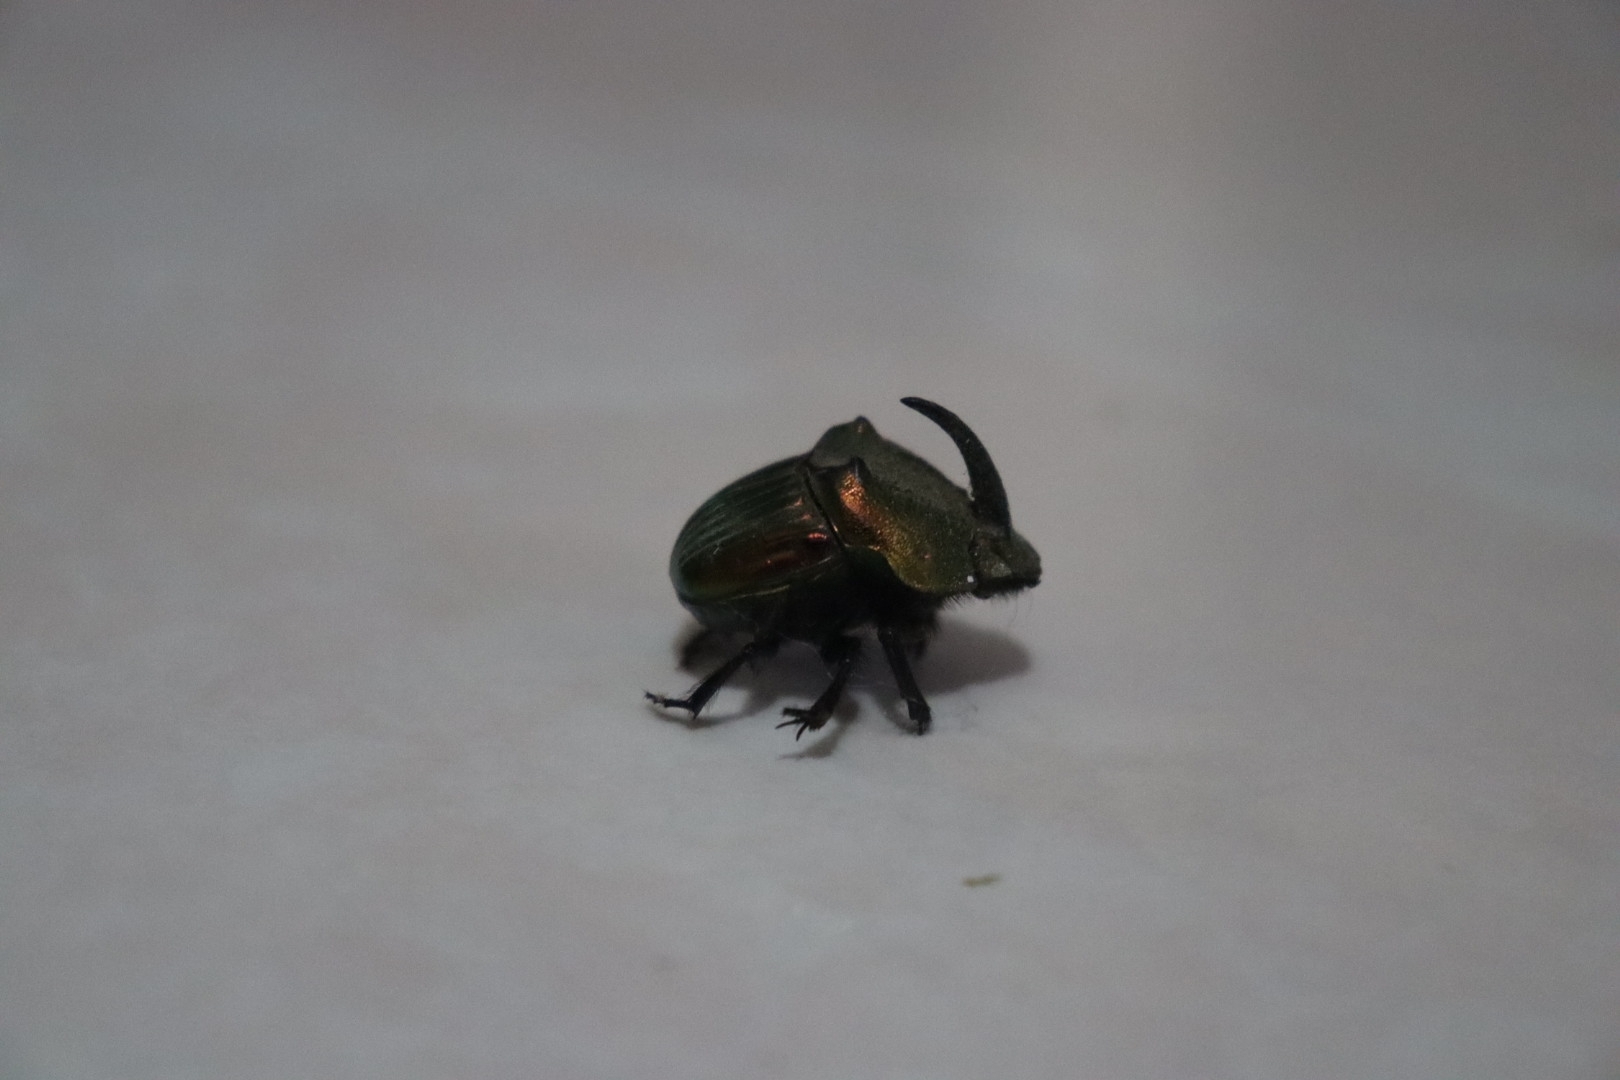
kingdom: Animalia
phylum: Arthropoda
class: Insecta
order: Coleoptera
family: Scarabaeidae
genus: Phanaeus
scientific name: Phanaeus amithaon
